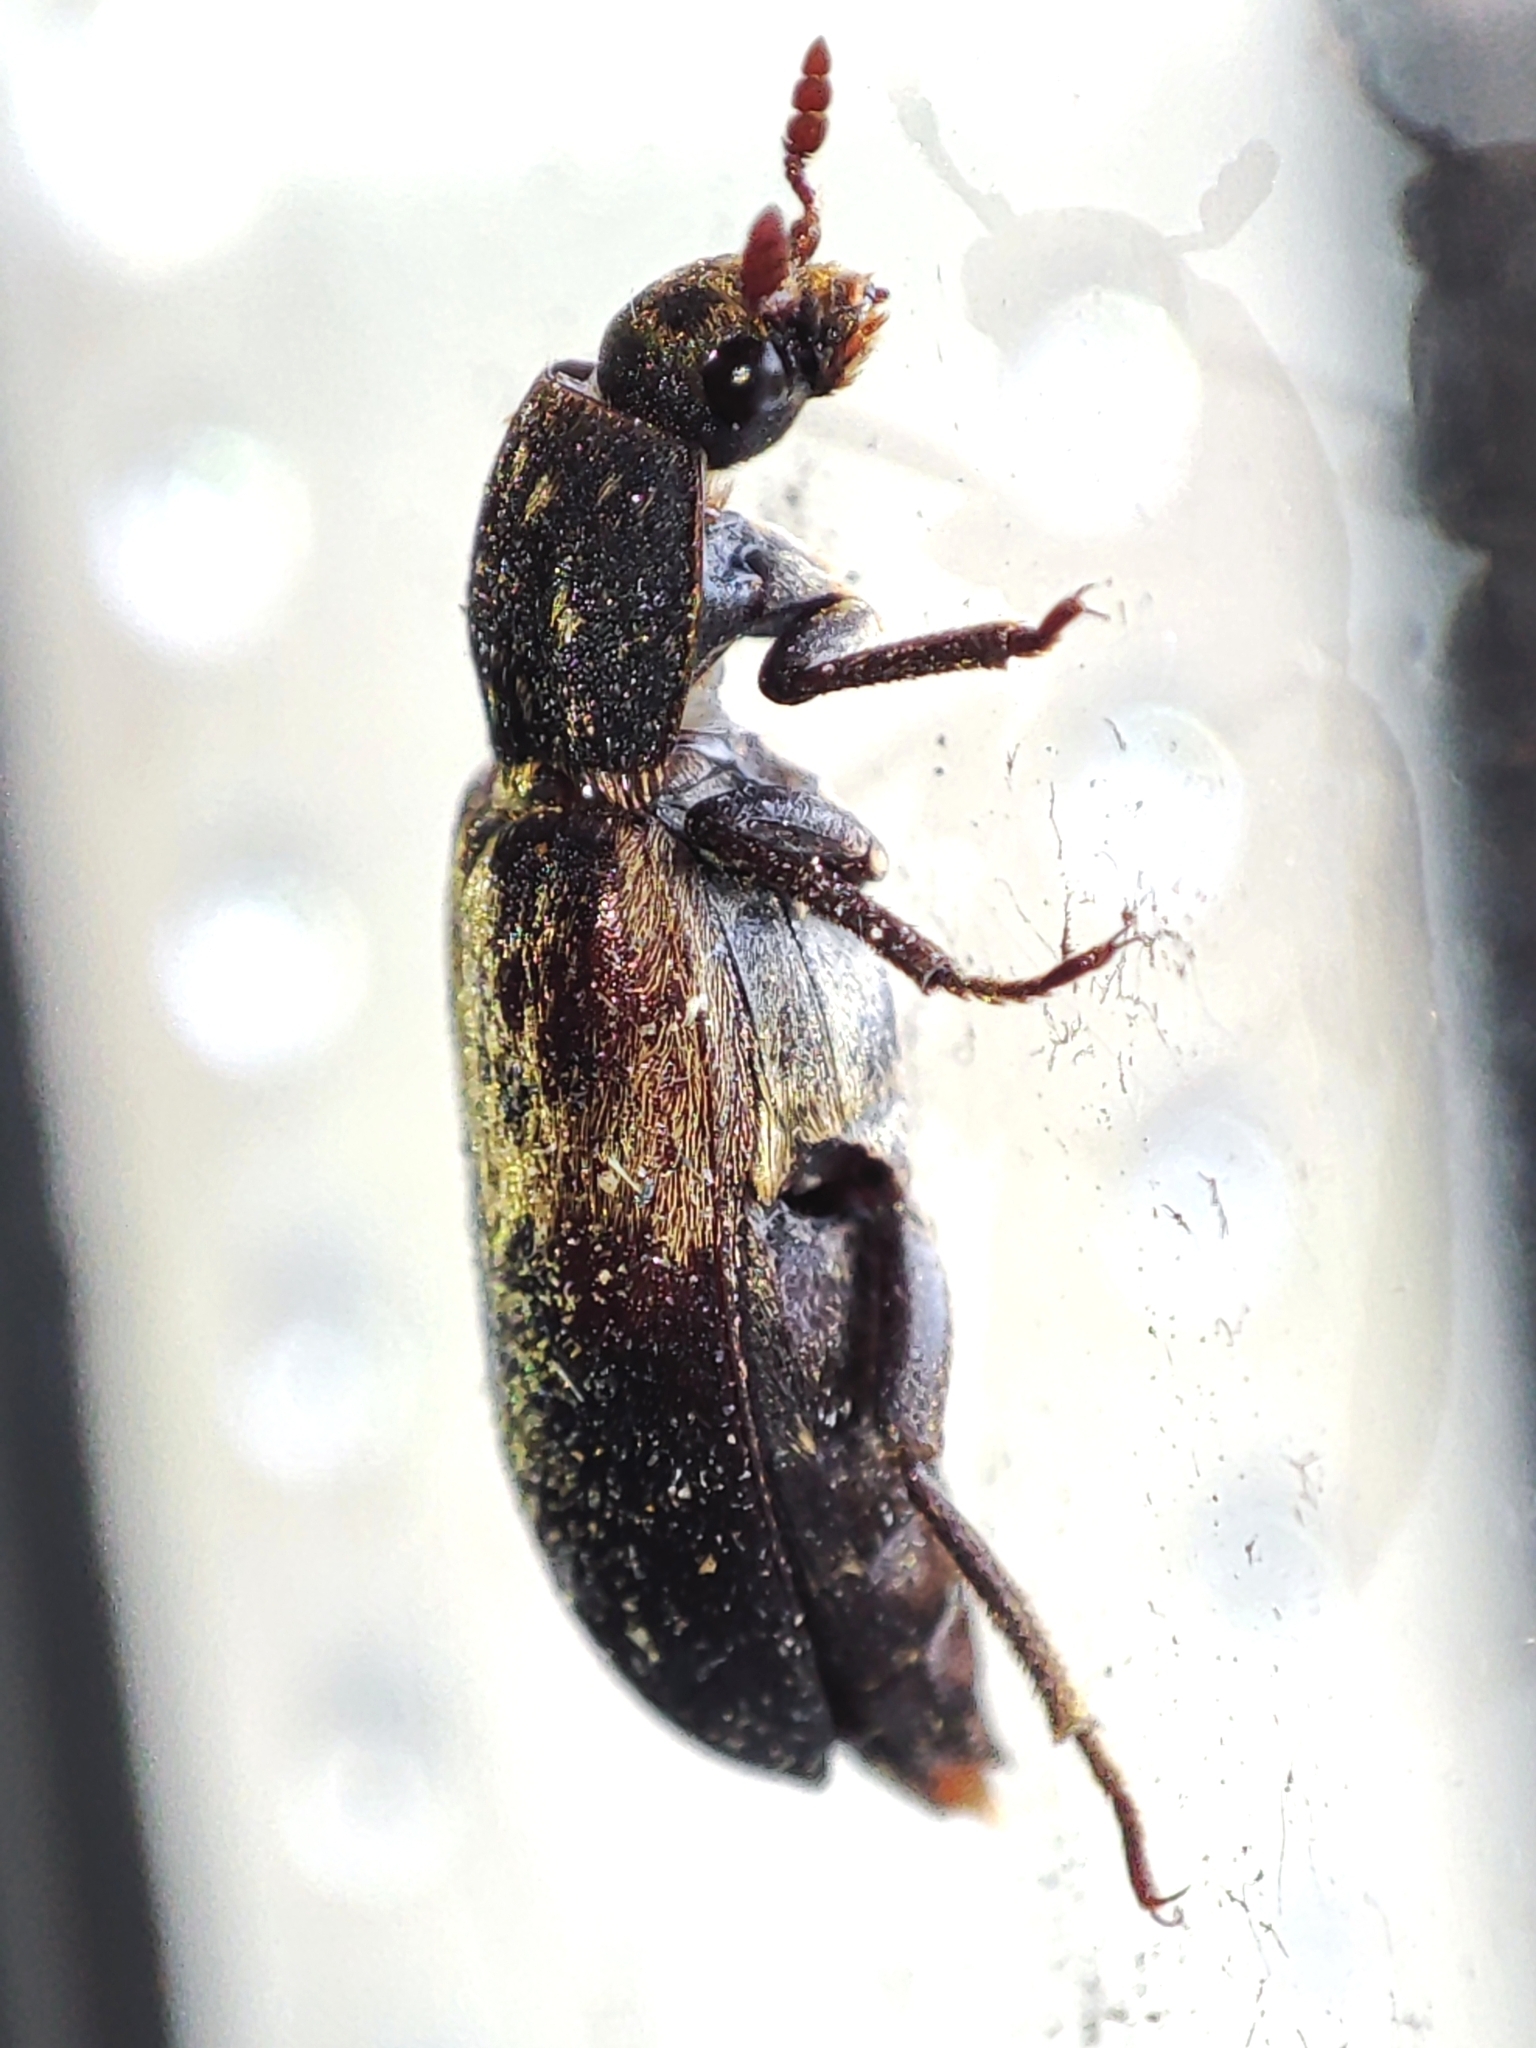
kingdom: Animalia
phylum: Arthropoda
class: Insecta
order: Coleoptera
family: Dermestidae
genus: Dermestes
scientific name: Dermestes lardarius
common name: Larder beetle
